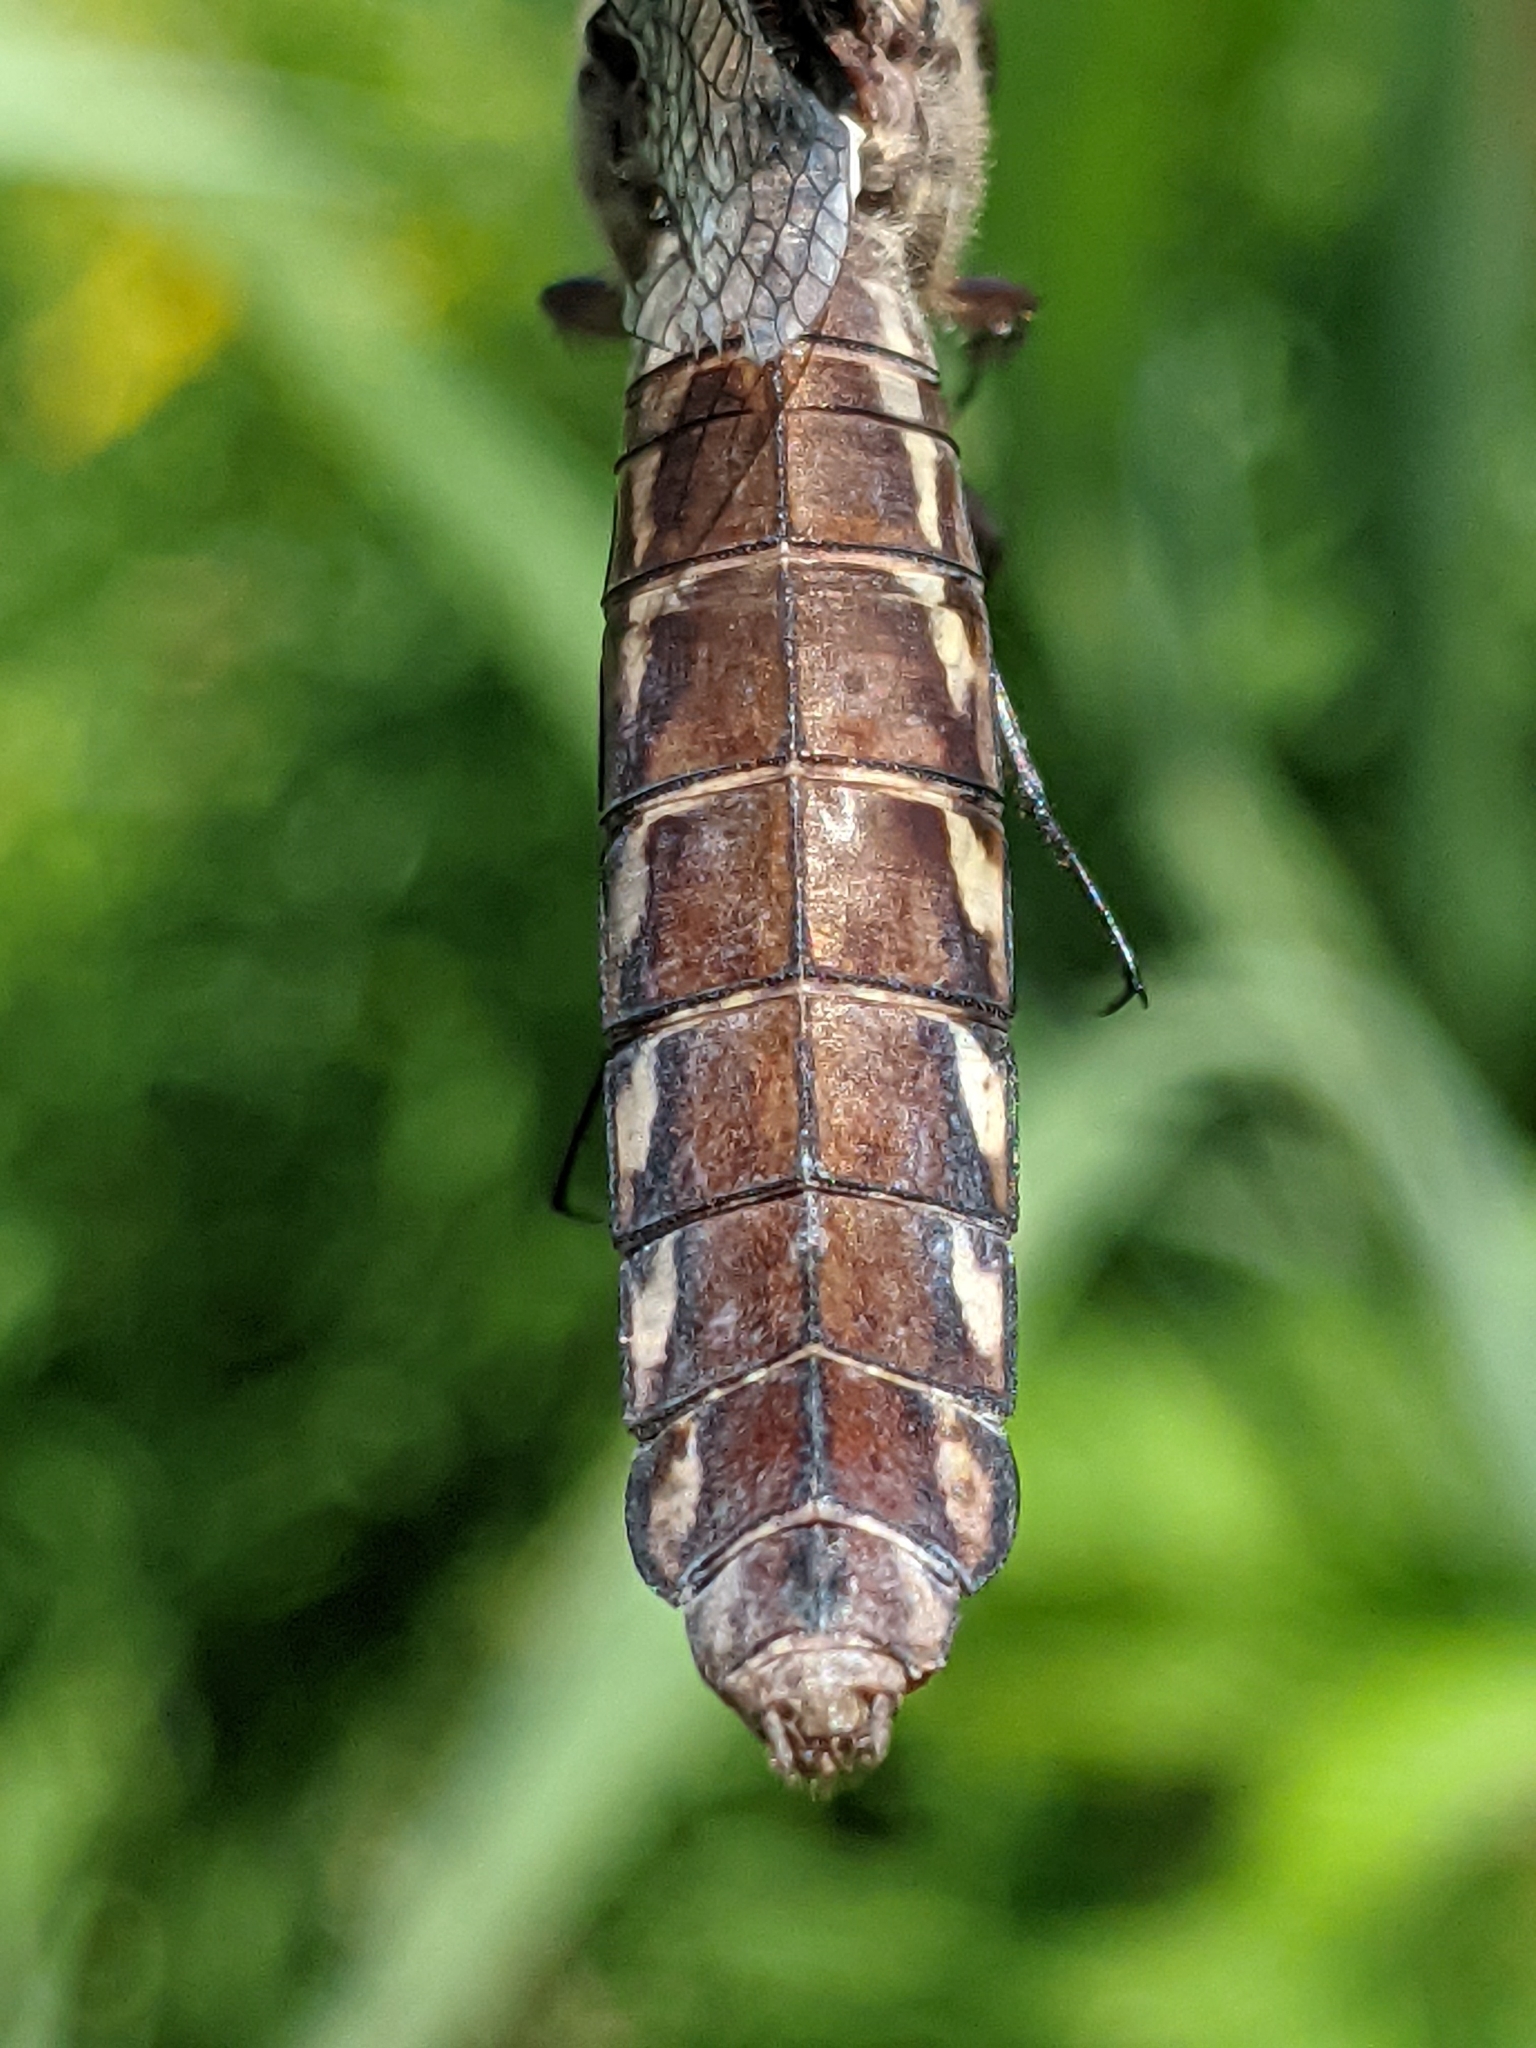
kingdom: Animalia
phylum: Arthropoda
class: Insecta
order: Odonata
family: Libellulidae
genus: Plathemis
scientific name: Plathemis lydia
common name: Common whitetail
